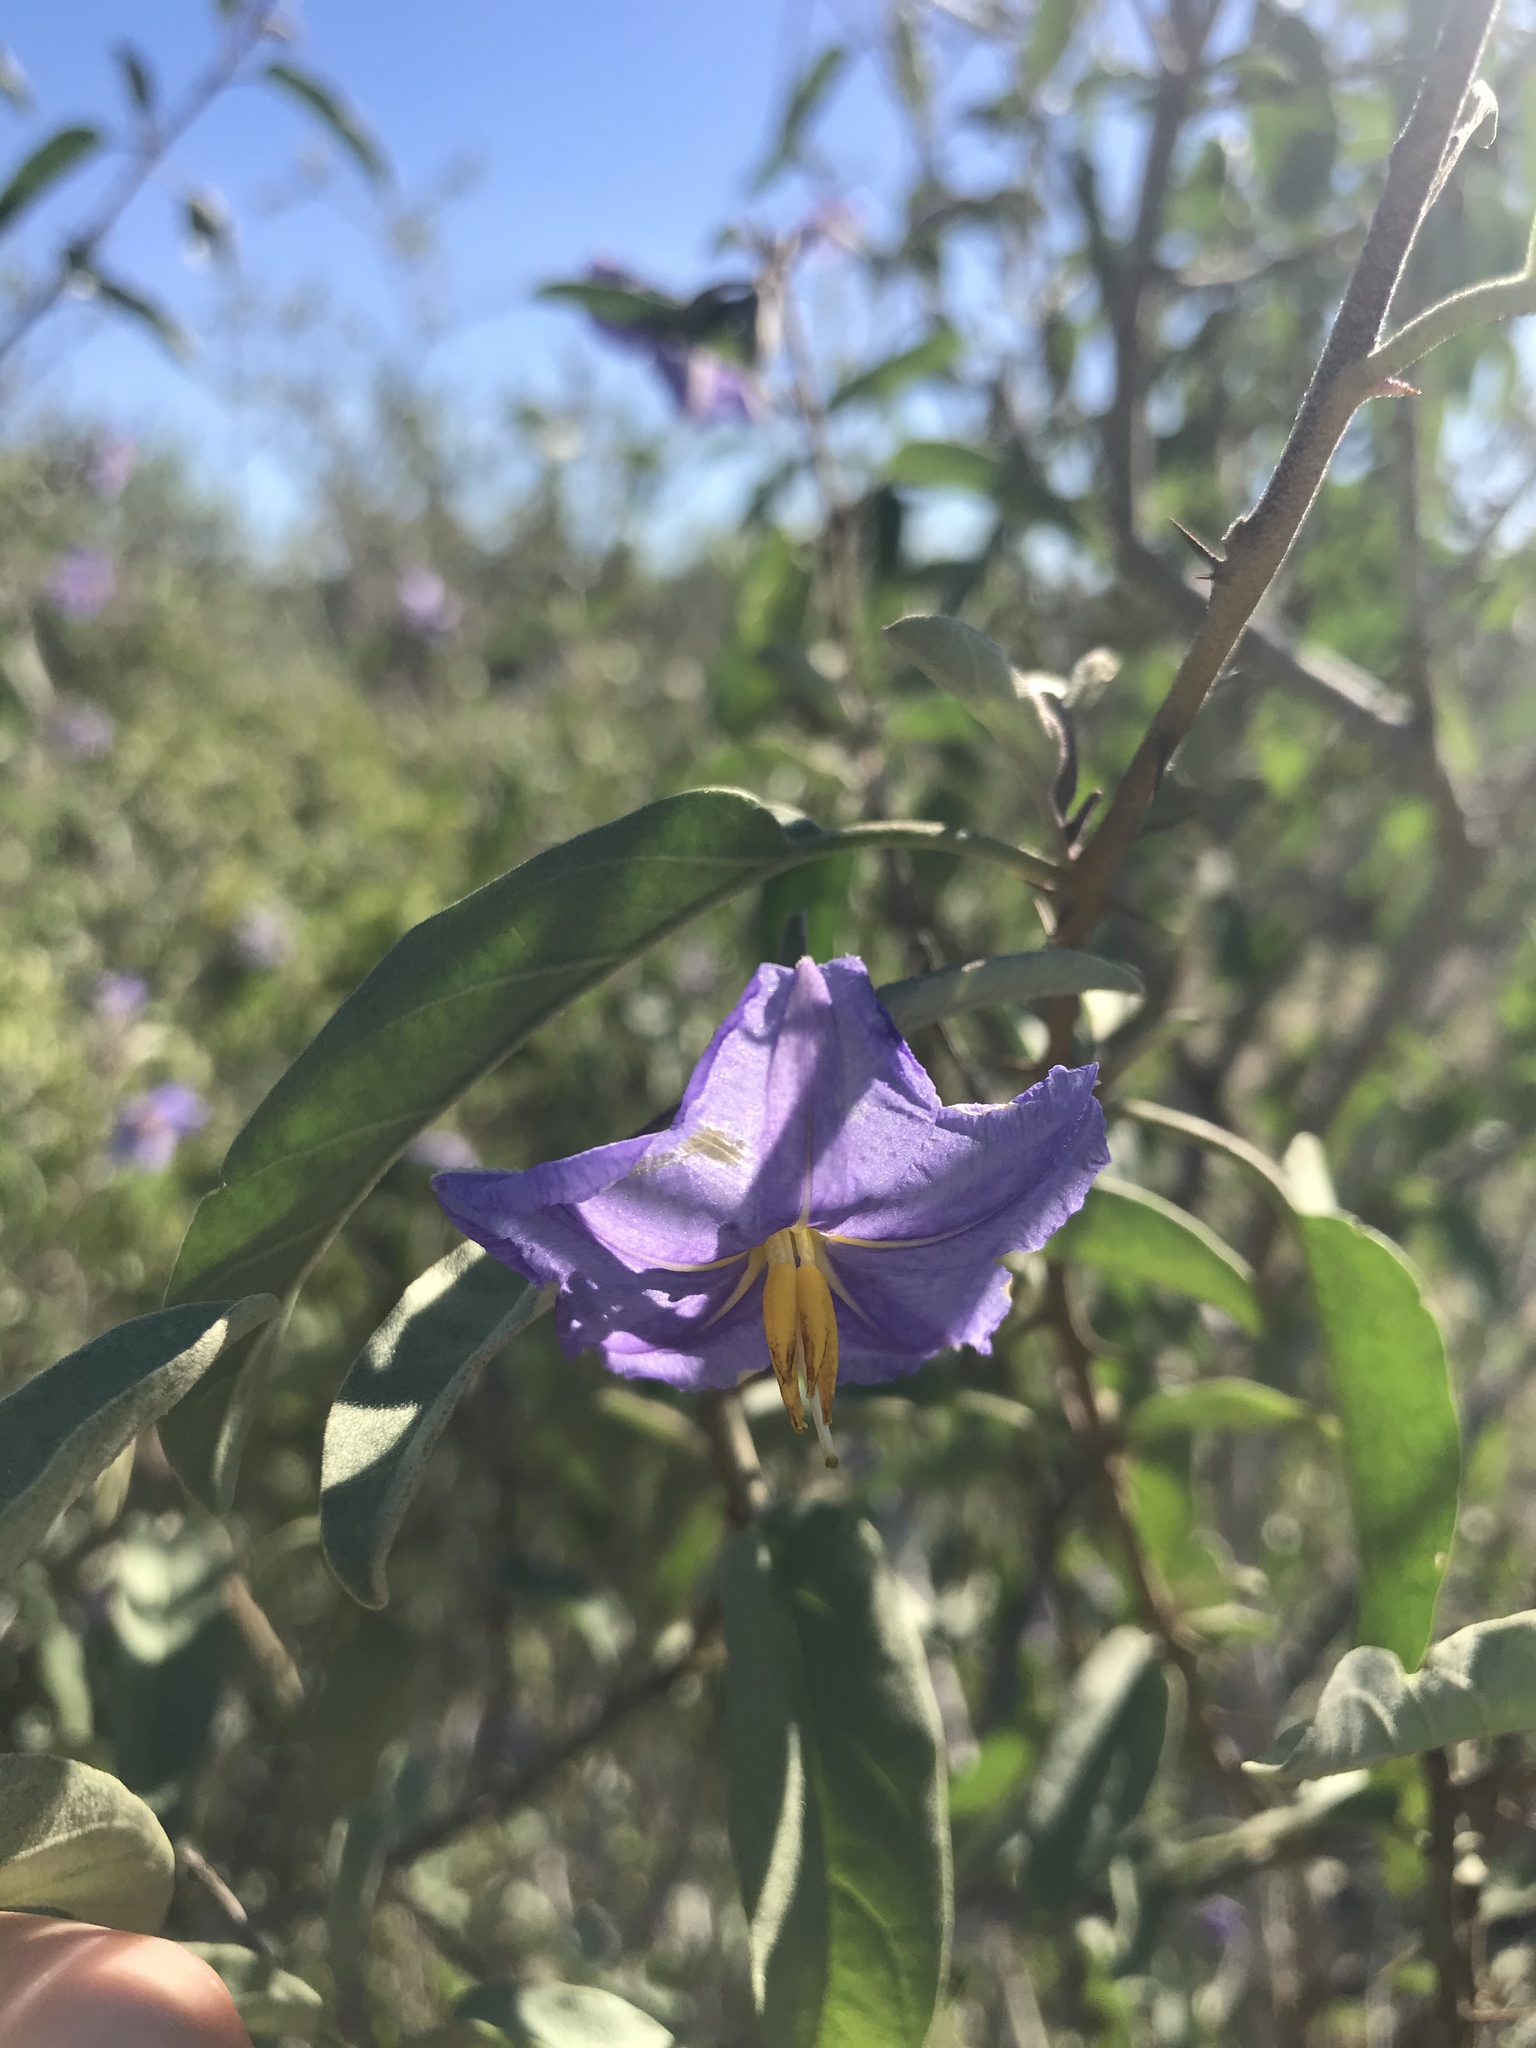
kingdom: Plantae
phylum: Tracheophyta
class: Magnoliopsida
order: Solanales
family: Solanaceae
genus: Solanum
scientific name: Solanum hindsianum
